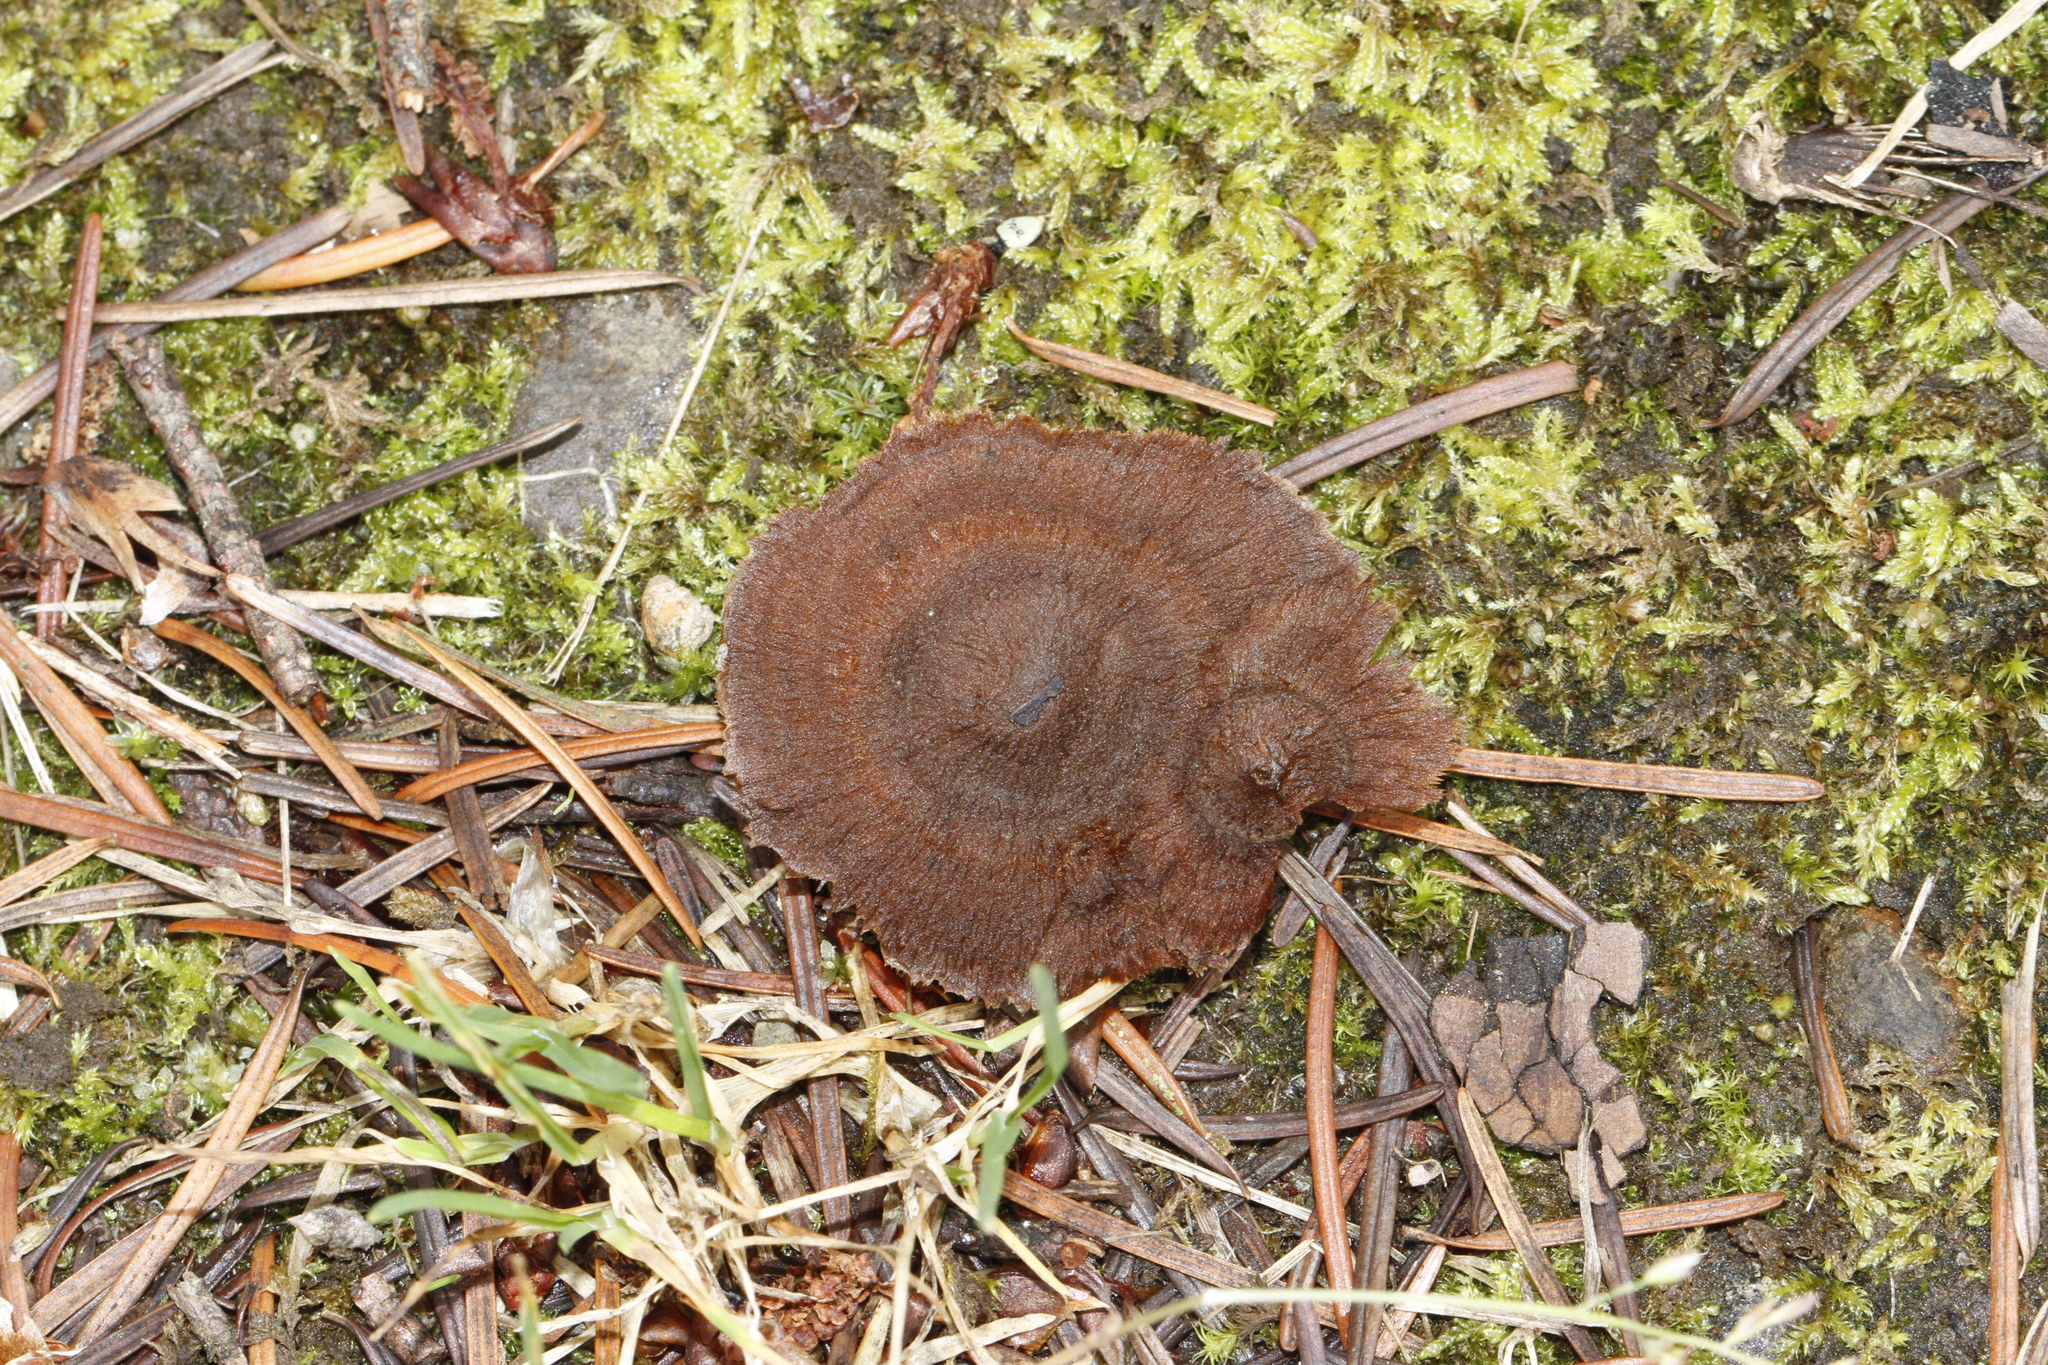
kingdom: Fungi
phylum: Basidiomycota
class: Agaricomycetes
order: Hymenochaetales
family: Hymenochaetaceae
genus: Coltricia
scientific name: Coltricia perennis
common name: Tiger's eye
